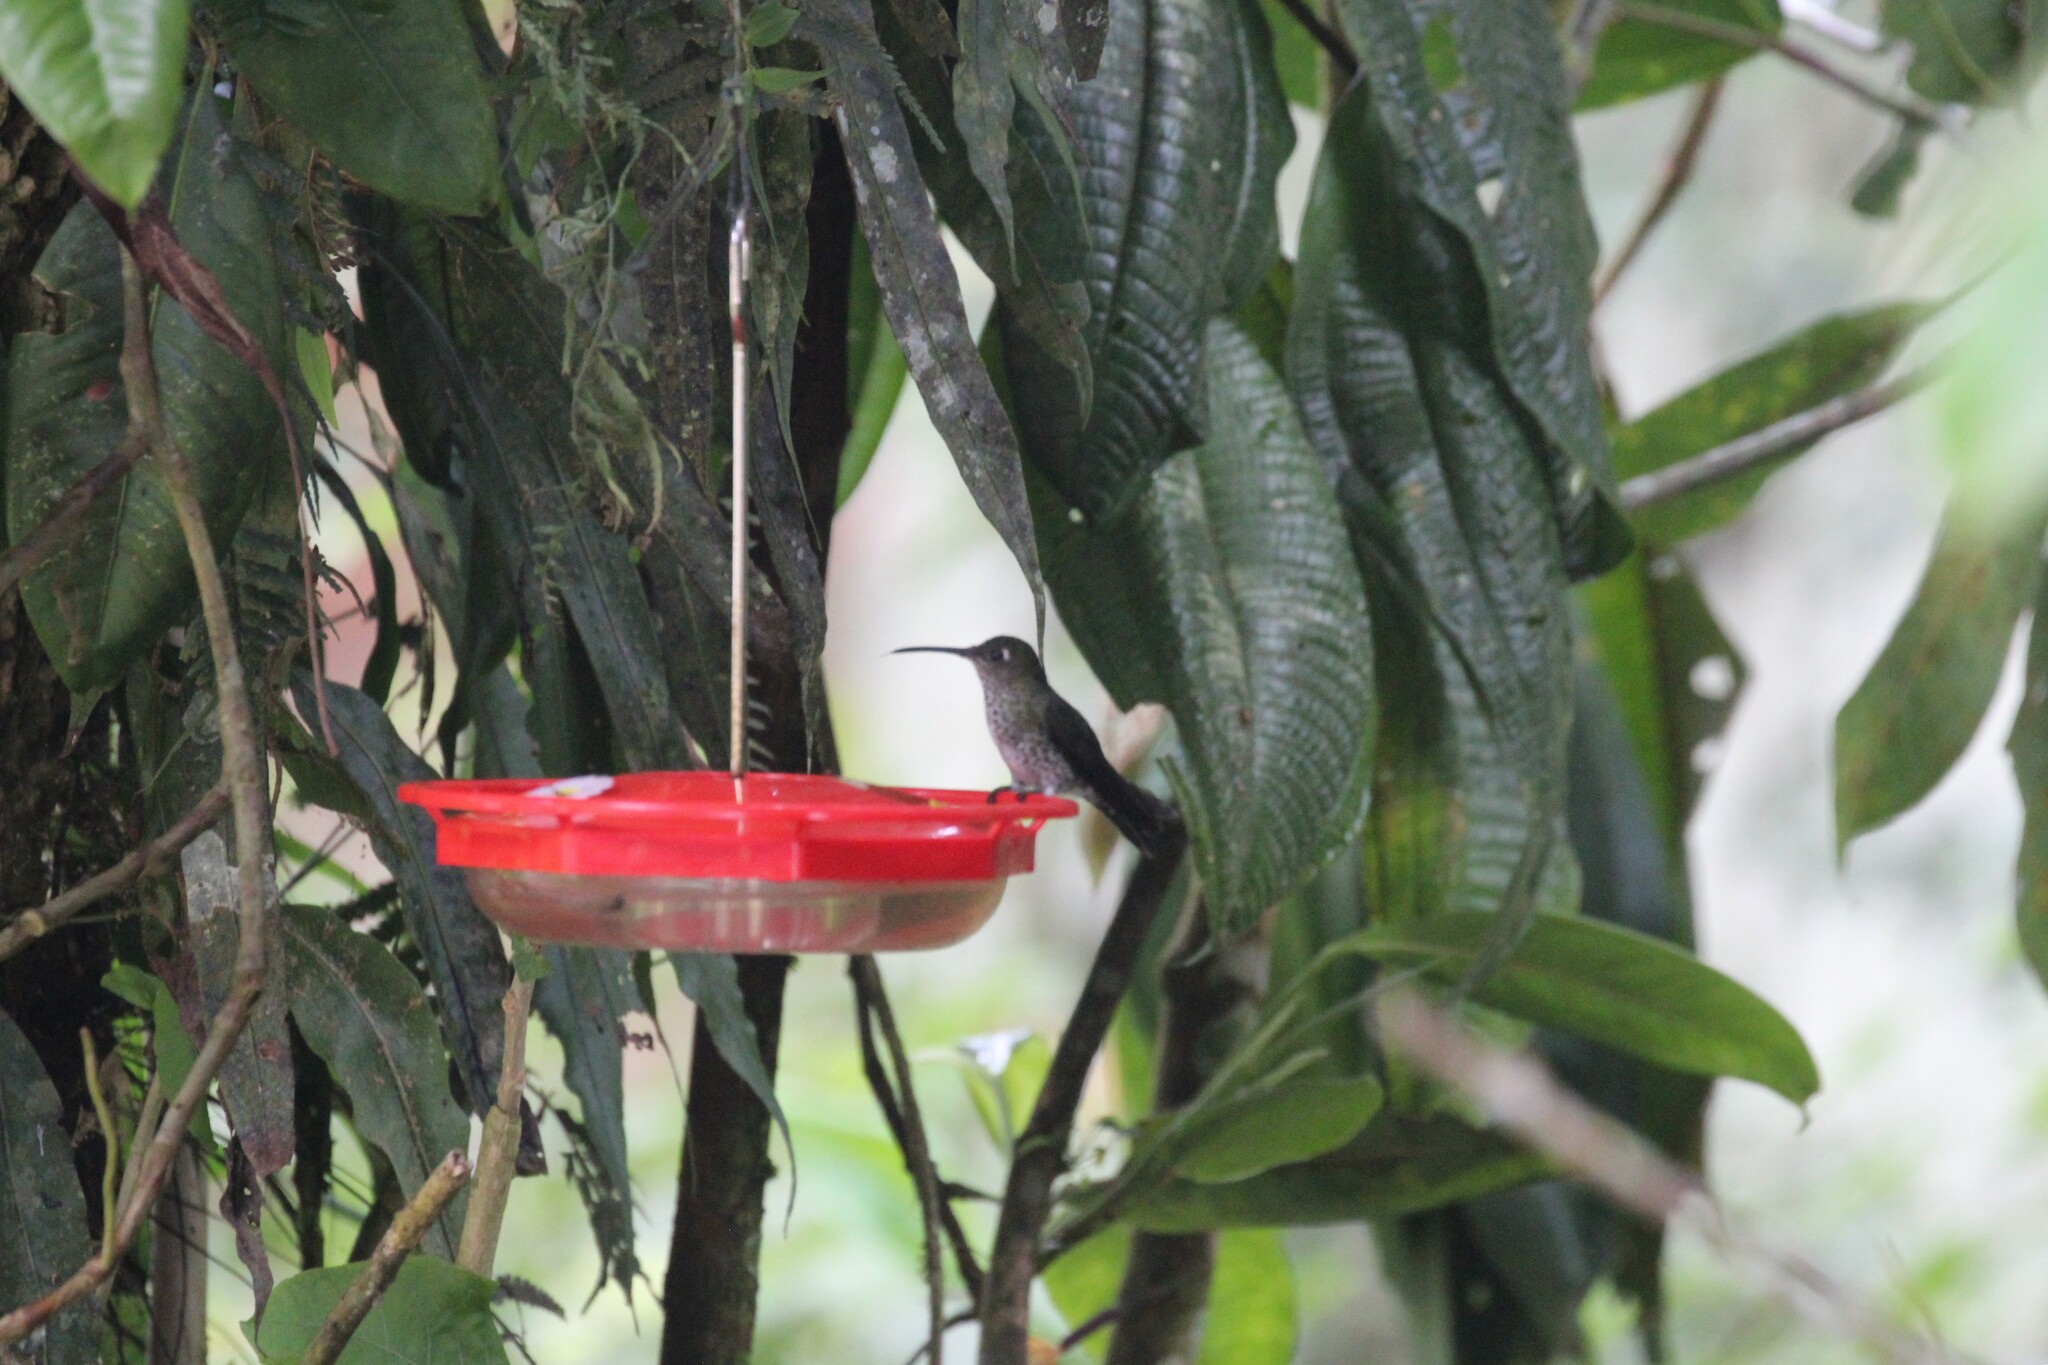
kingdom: Animalia
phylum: Chordata
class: Aves
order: Apodiformes
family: Trochilidae
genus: Taphrospilus
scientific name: Taphrospilus hypostictus
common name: Many-spotted hummingbird
